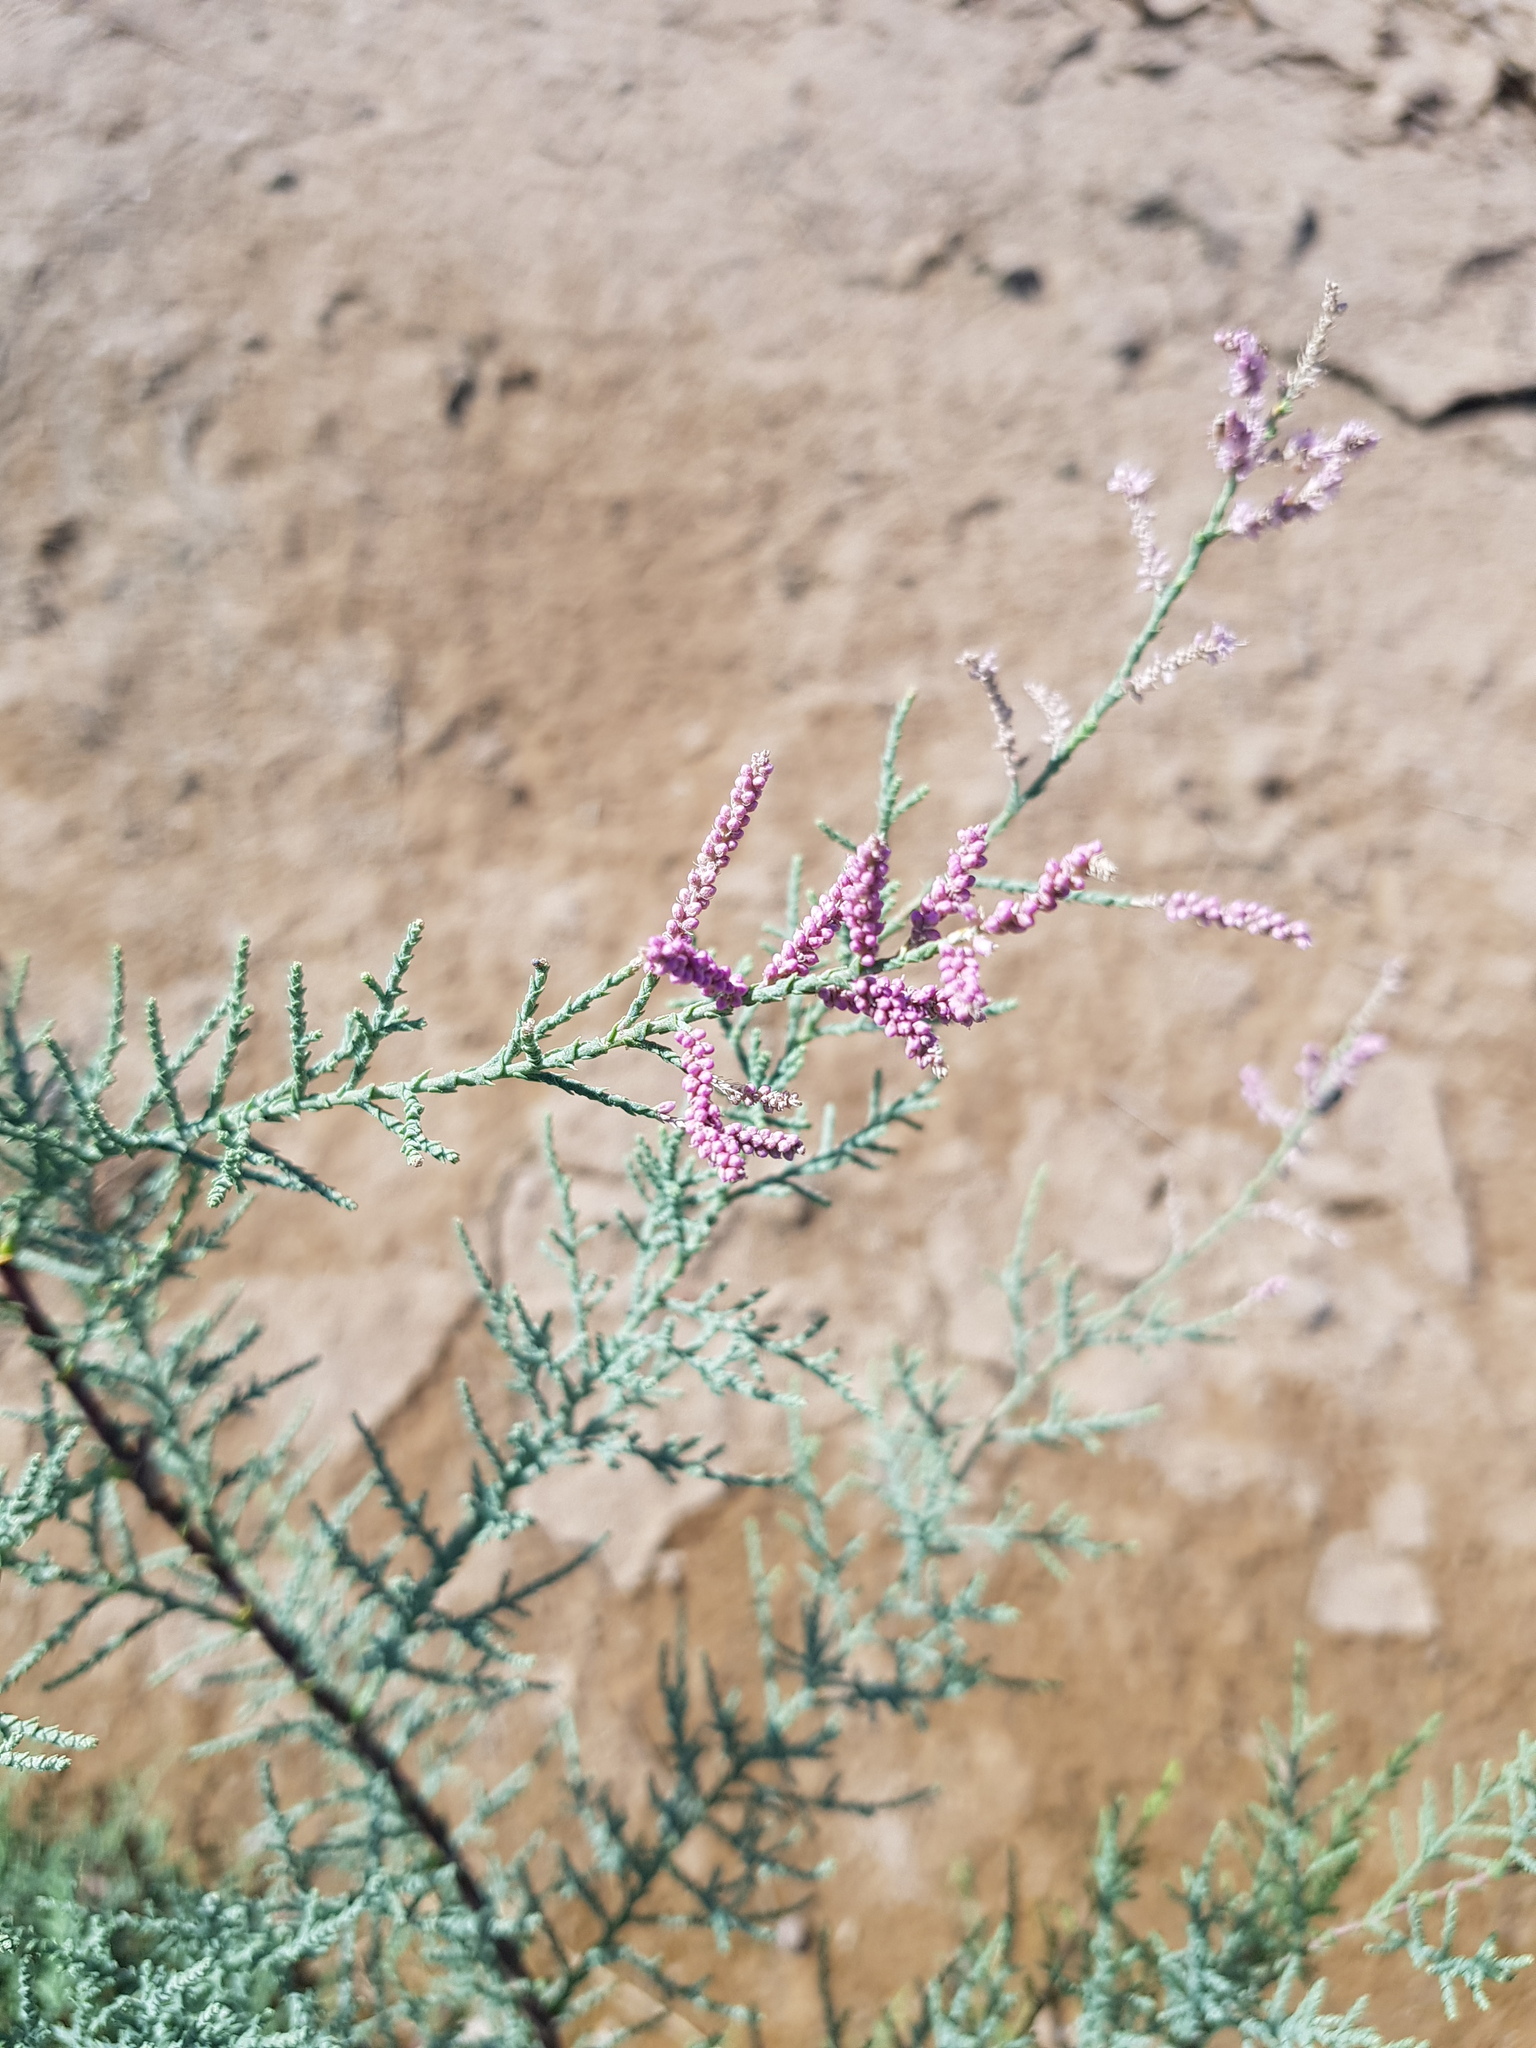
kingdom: Plantae
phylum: Tracheophyta
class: Magnoliopsida
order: Caryophyllales
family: Tamaricaceae
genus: Tamarix
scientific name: Tamarix gracilis
